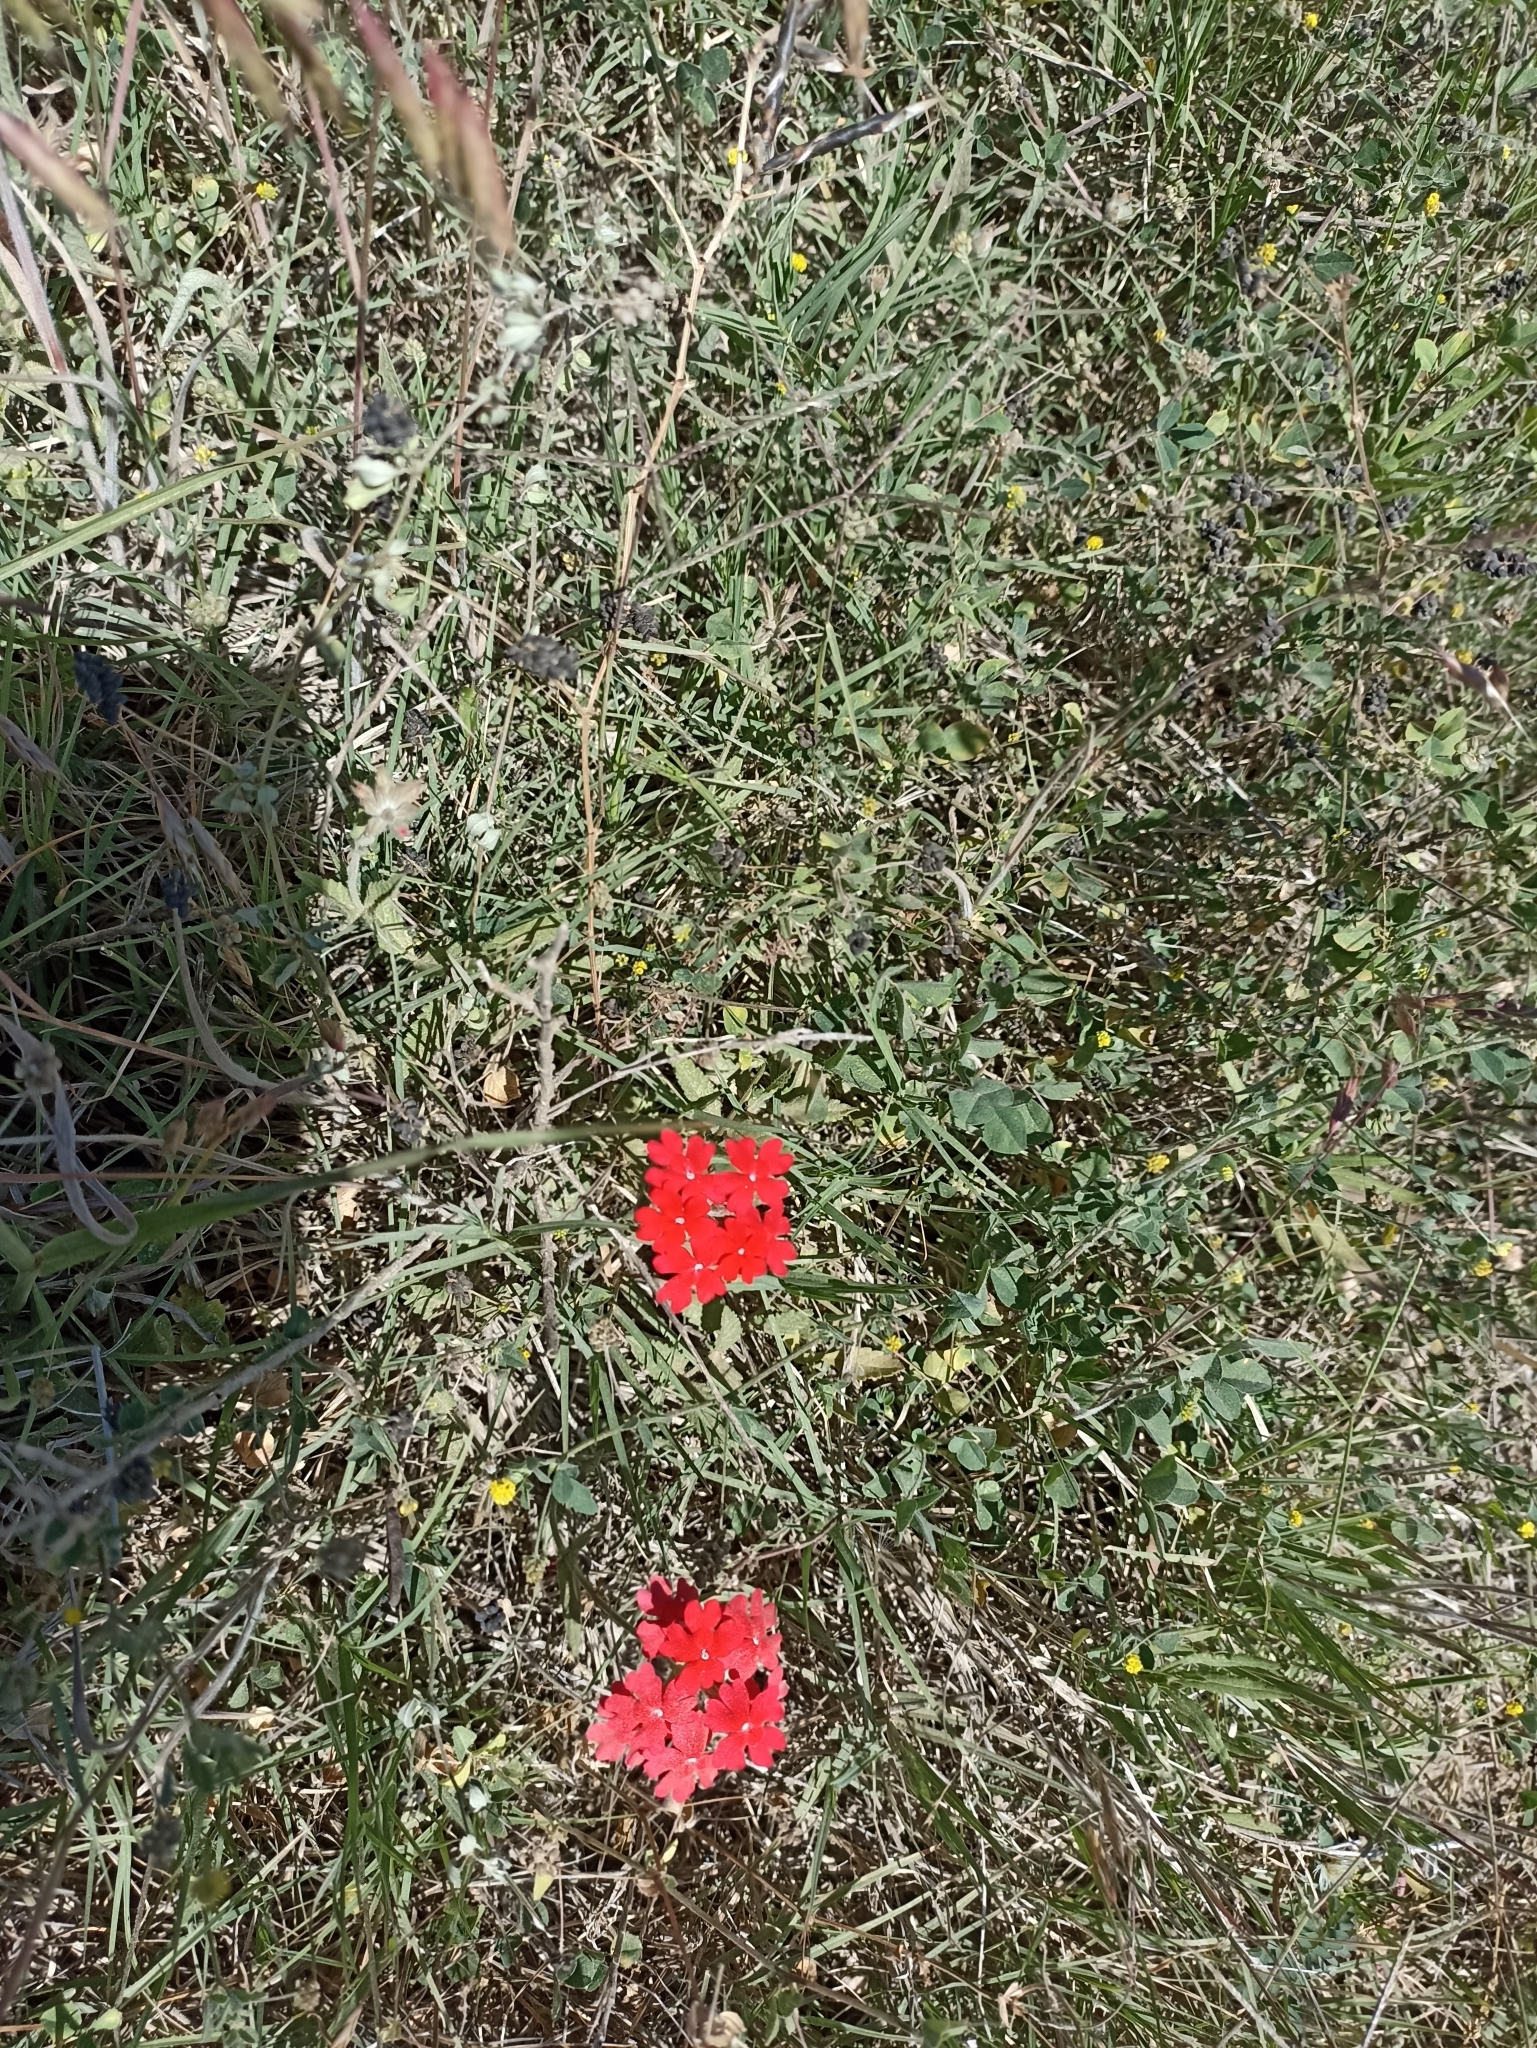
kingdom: Plantae
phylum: Tracheophyta
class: Magnoliopsida
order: Lamiales
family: Verbenaceae
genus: Verbena
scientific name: Verbena peruviana
